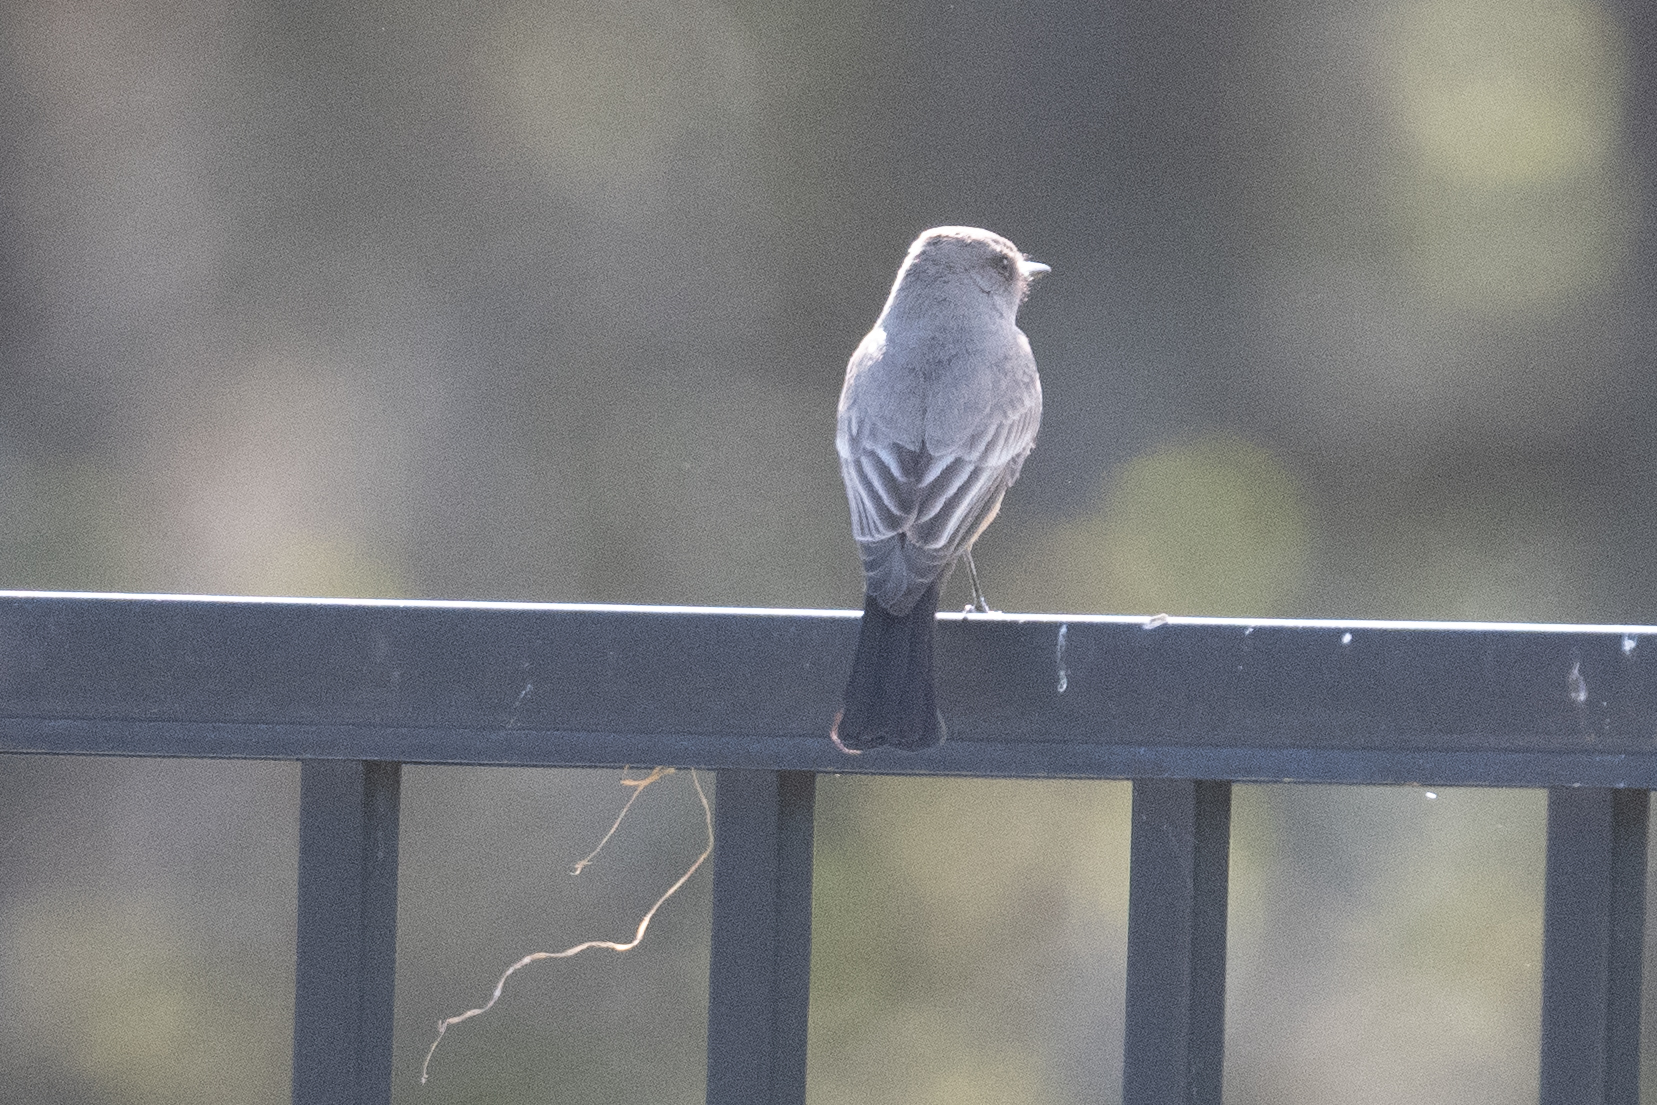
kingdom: Animalia
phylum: Chordata
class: Aves
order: Passeriformes
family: Tyrannidae
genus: Sayornis
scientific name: Sayornis saya
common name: Say's phoebe
